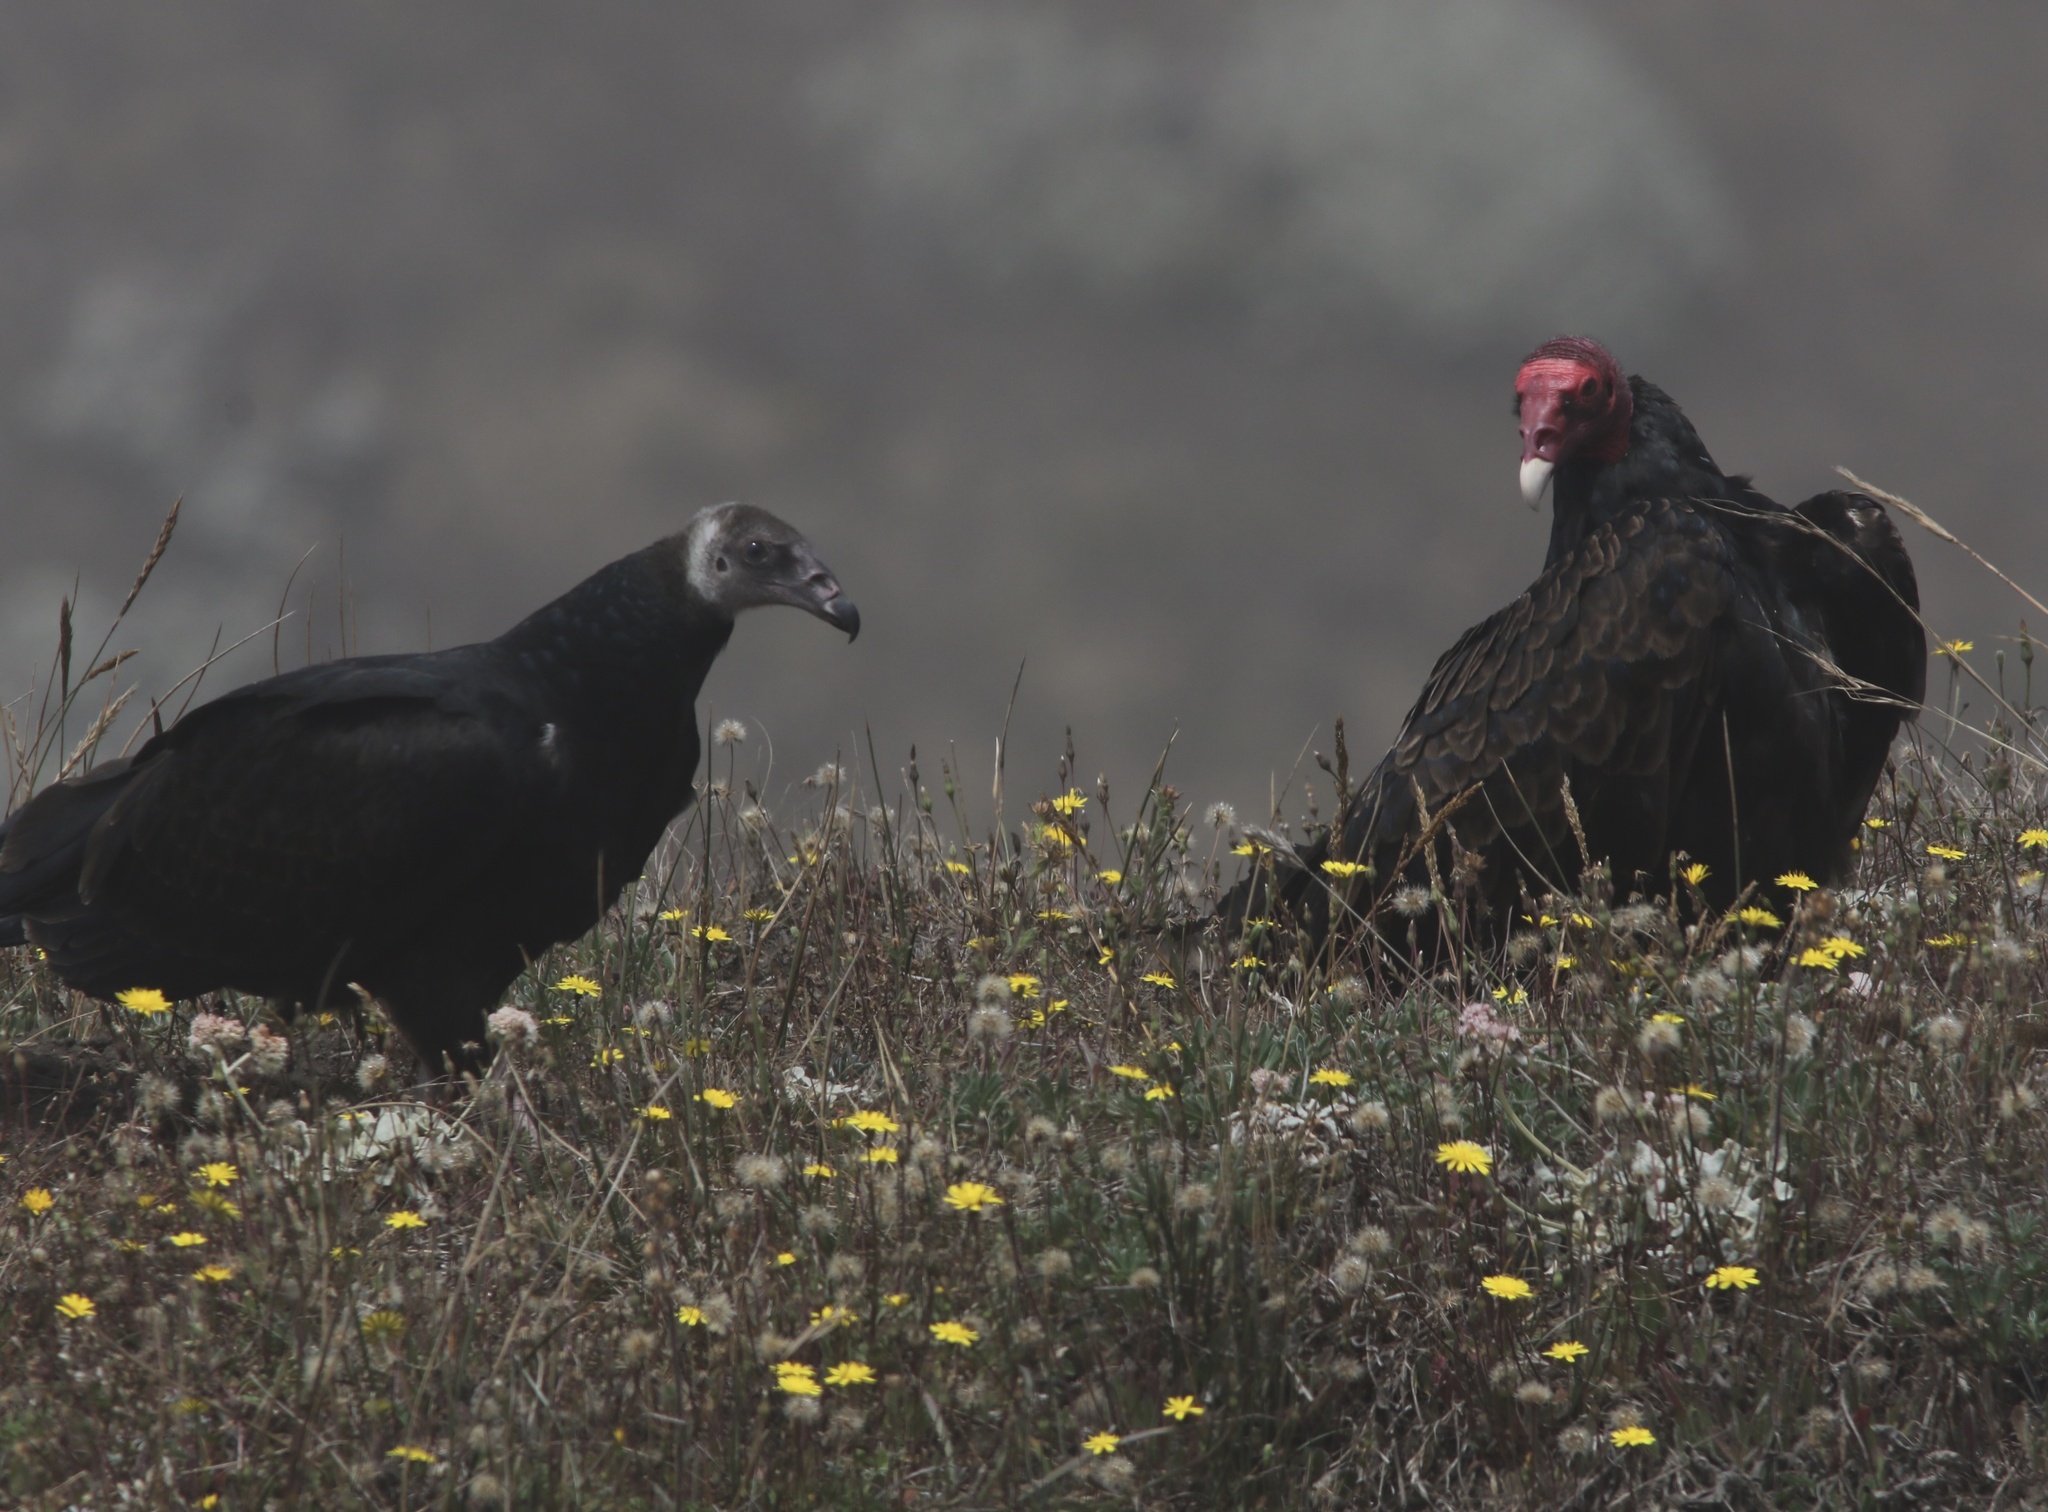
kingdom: Animalia
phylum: Chordata
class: Aves
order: Accipitriformes
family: Cathartidae
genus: Cathartes
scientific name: Cathartes aura
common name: Turkey vulture
